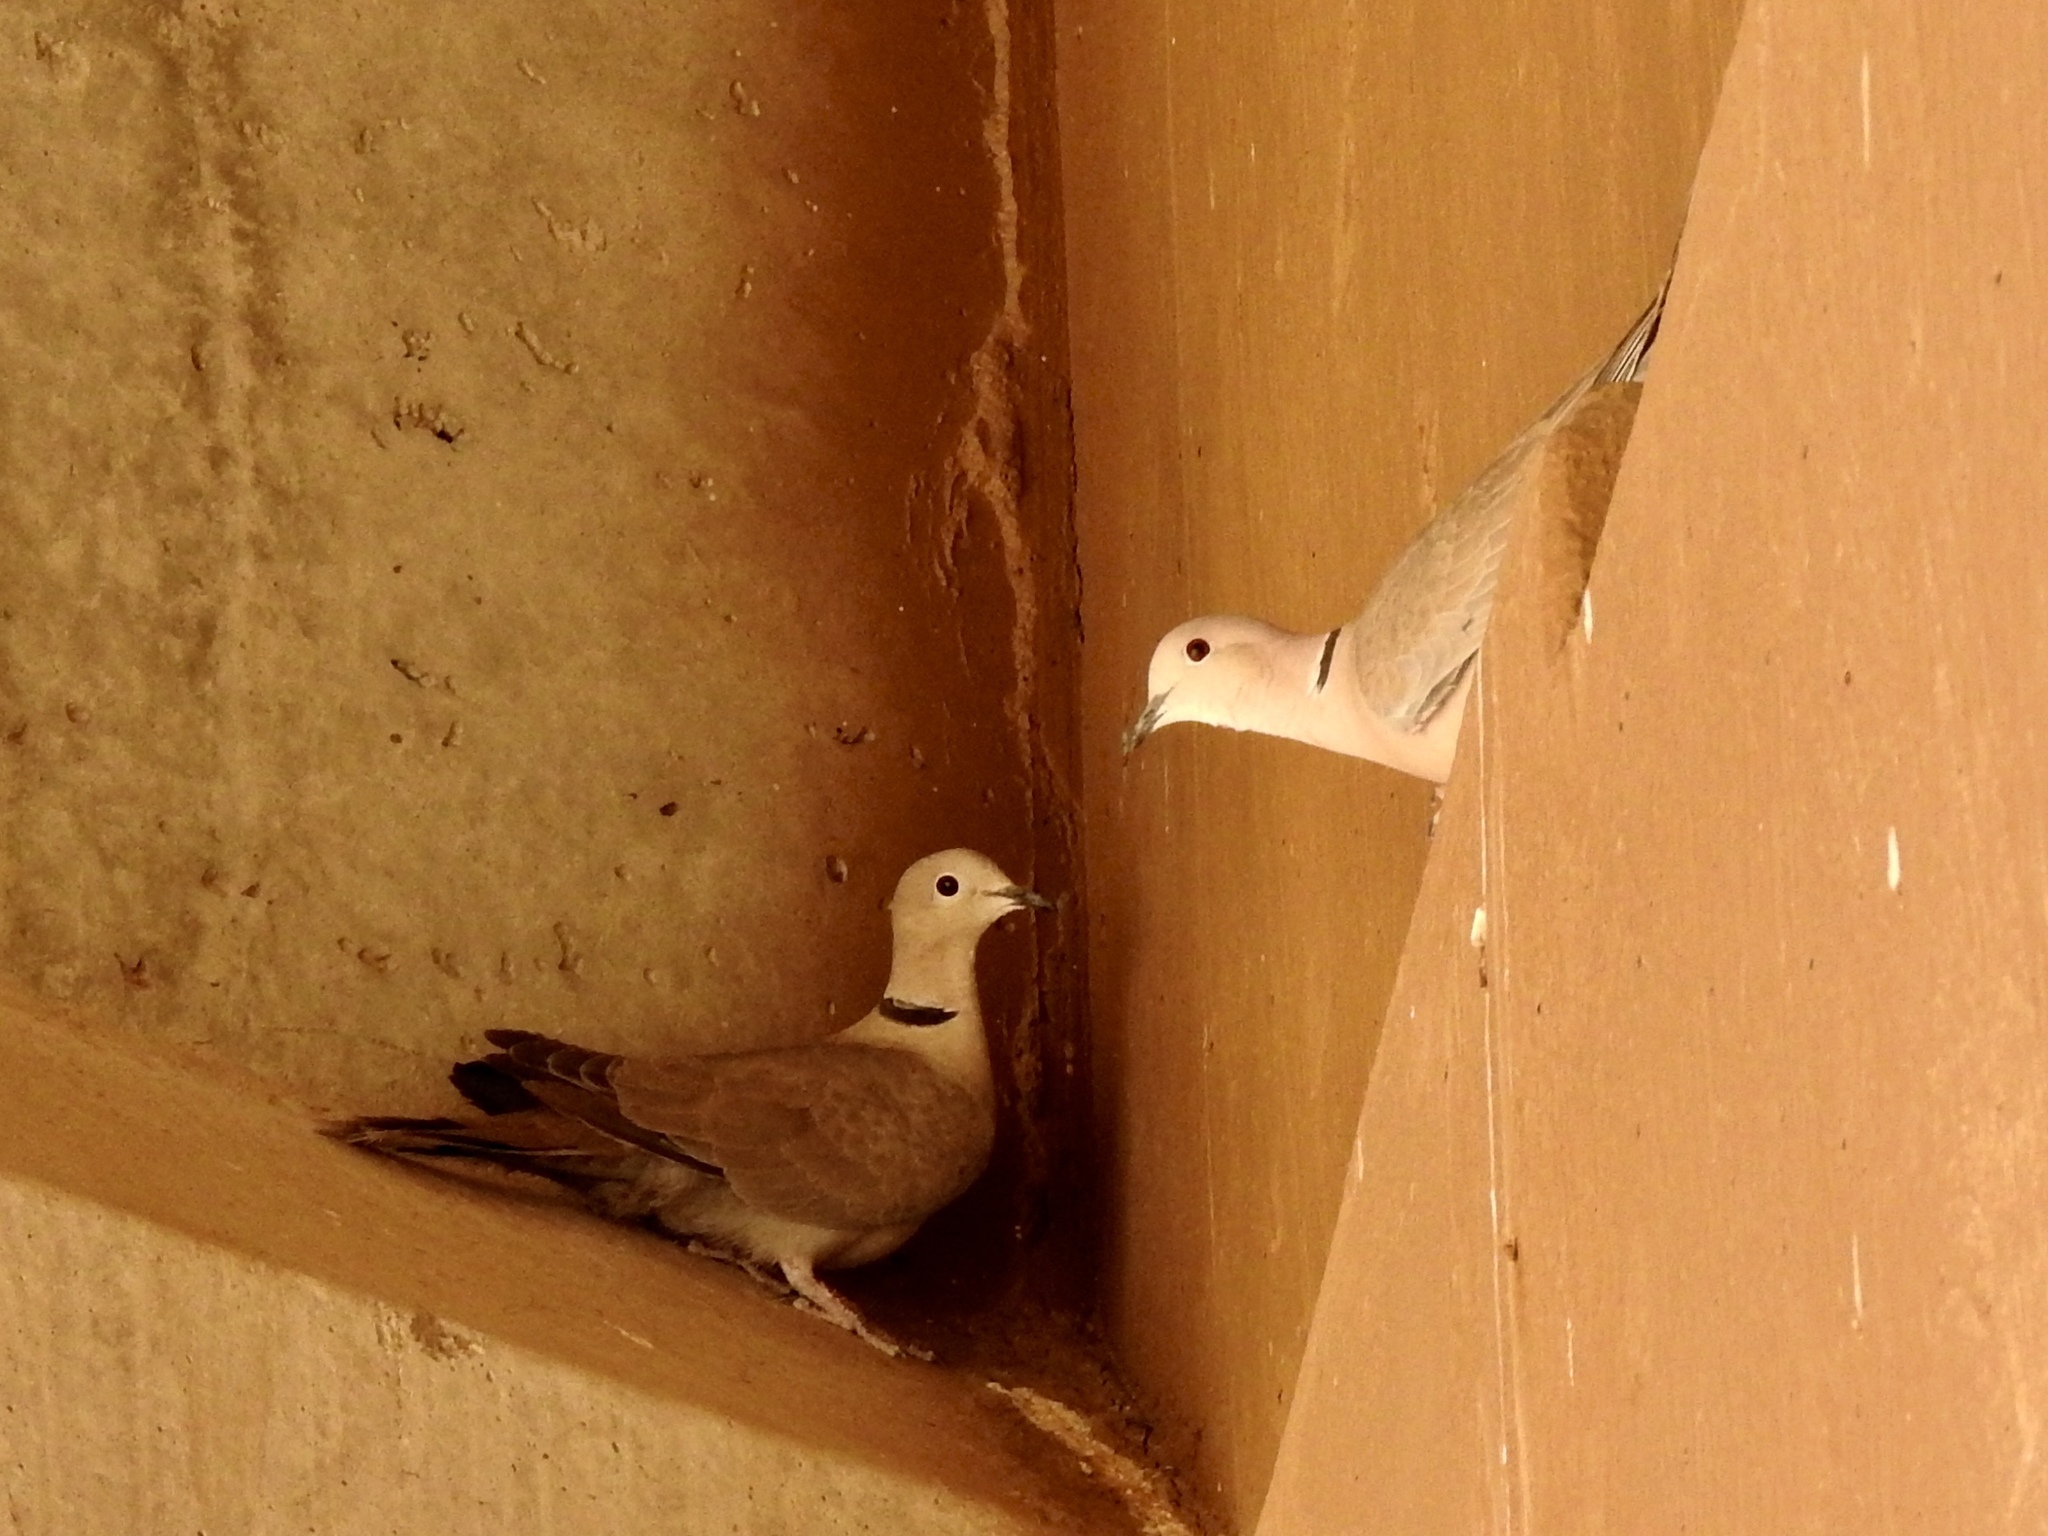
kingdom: Animalia
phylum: Chordata
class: Aves
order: Columbiformes
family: Columbidae
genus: Streptopelia
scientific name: Streptopelia decaocto
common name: Eurasian collared dove
